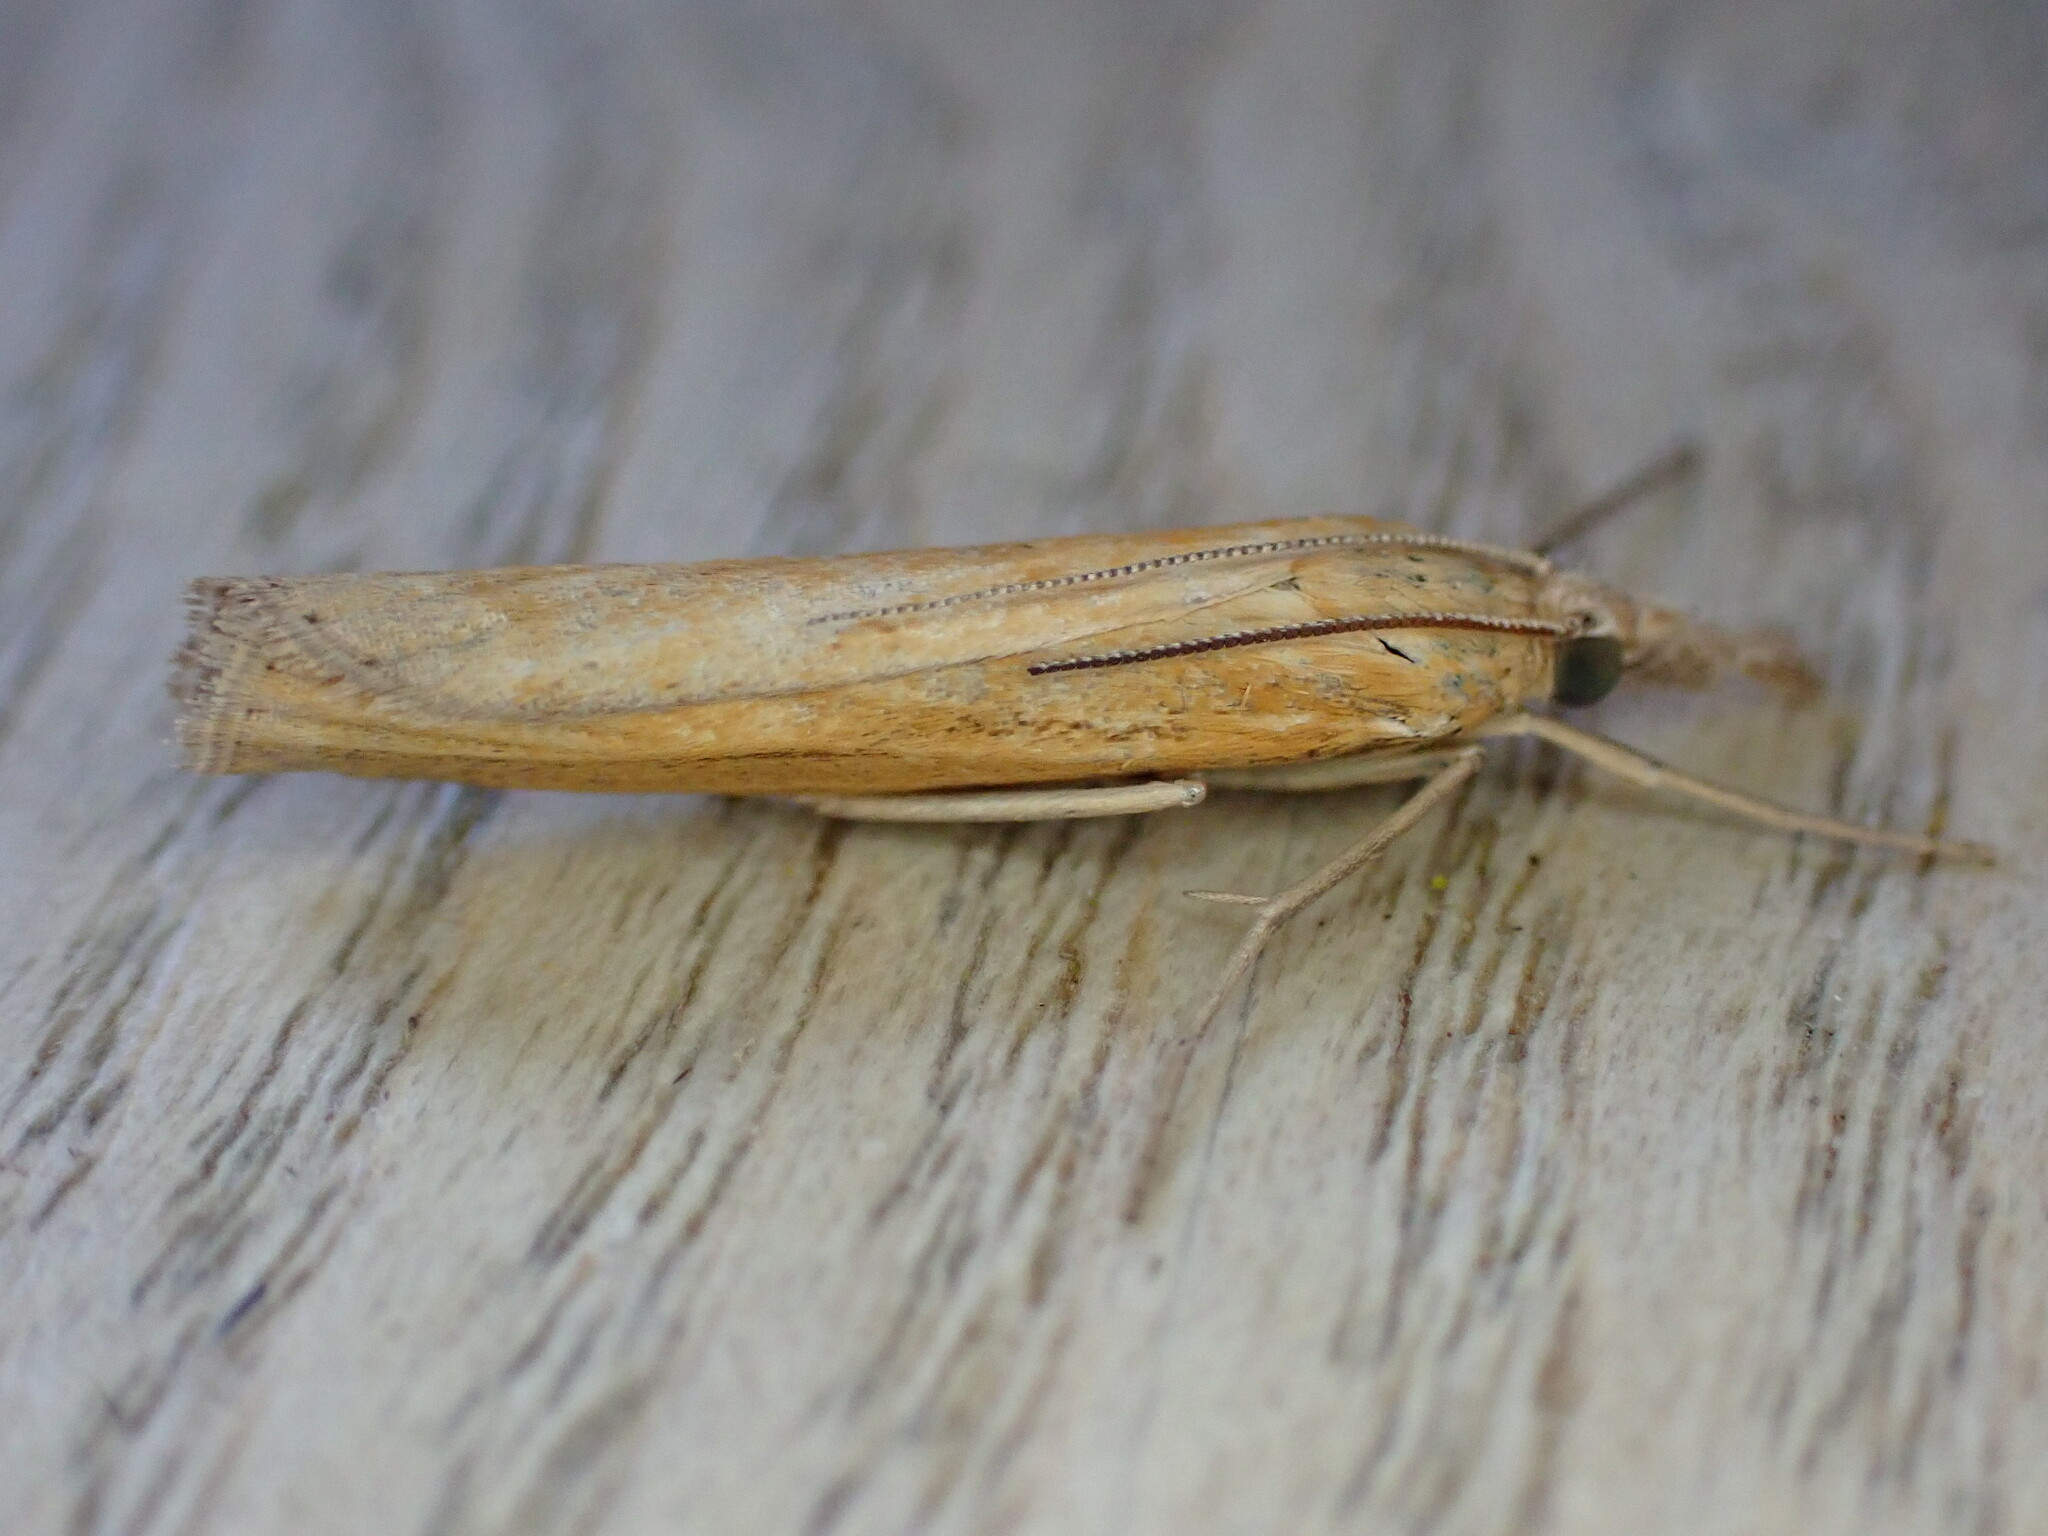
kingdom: Animalia
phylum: Arthropoda
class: Insecta
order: Lepidoptera
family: Crambidae
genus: Agriphila
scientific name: Agriphila tristellus
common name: Common grass-veneer
